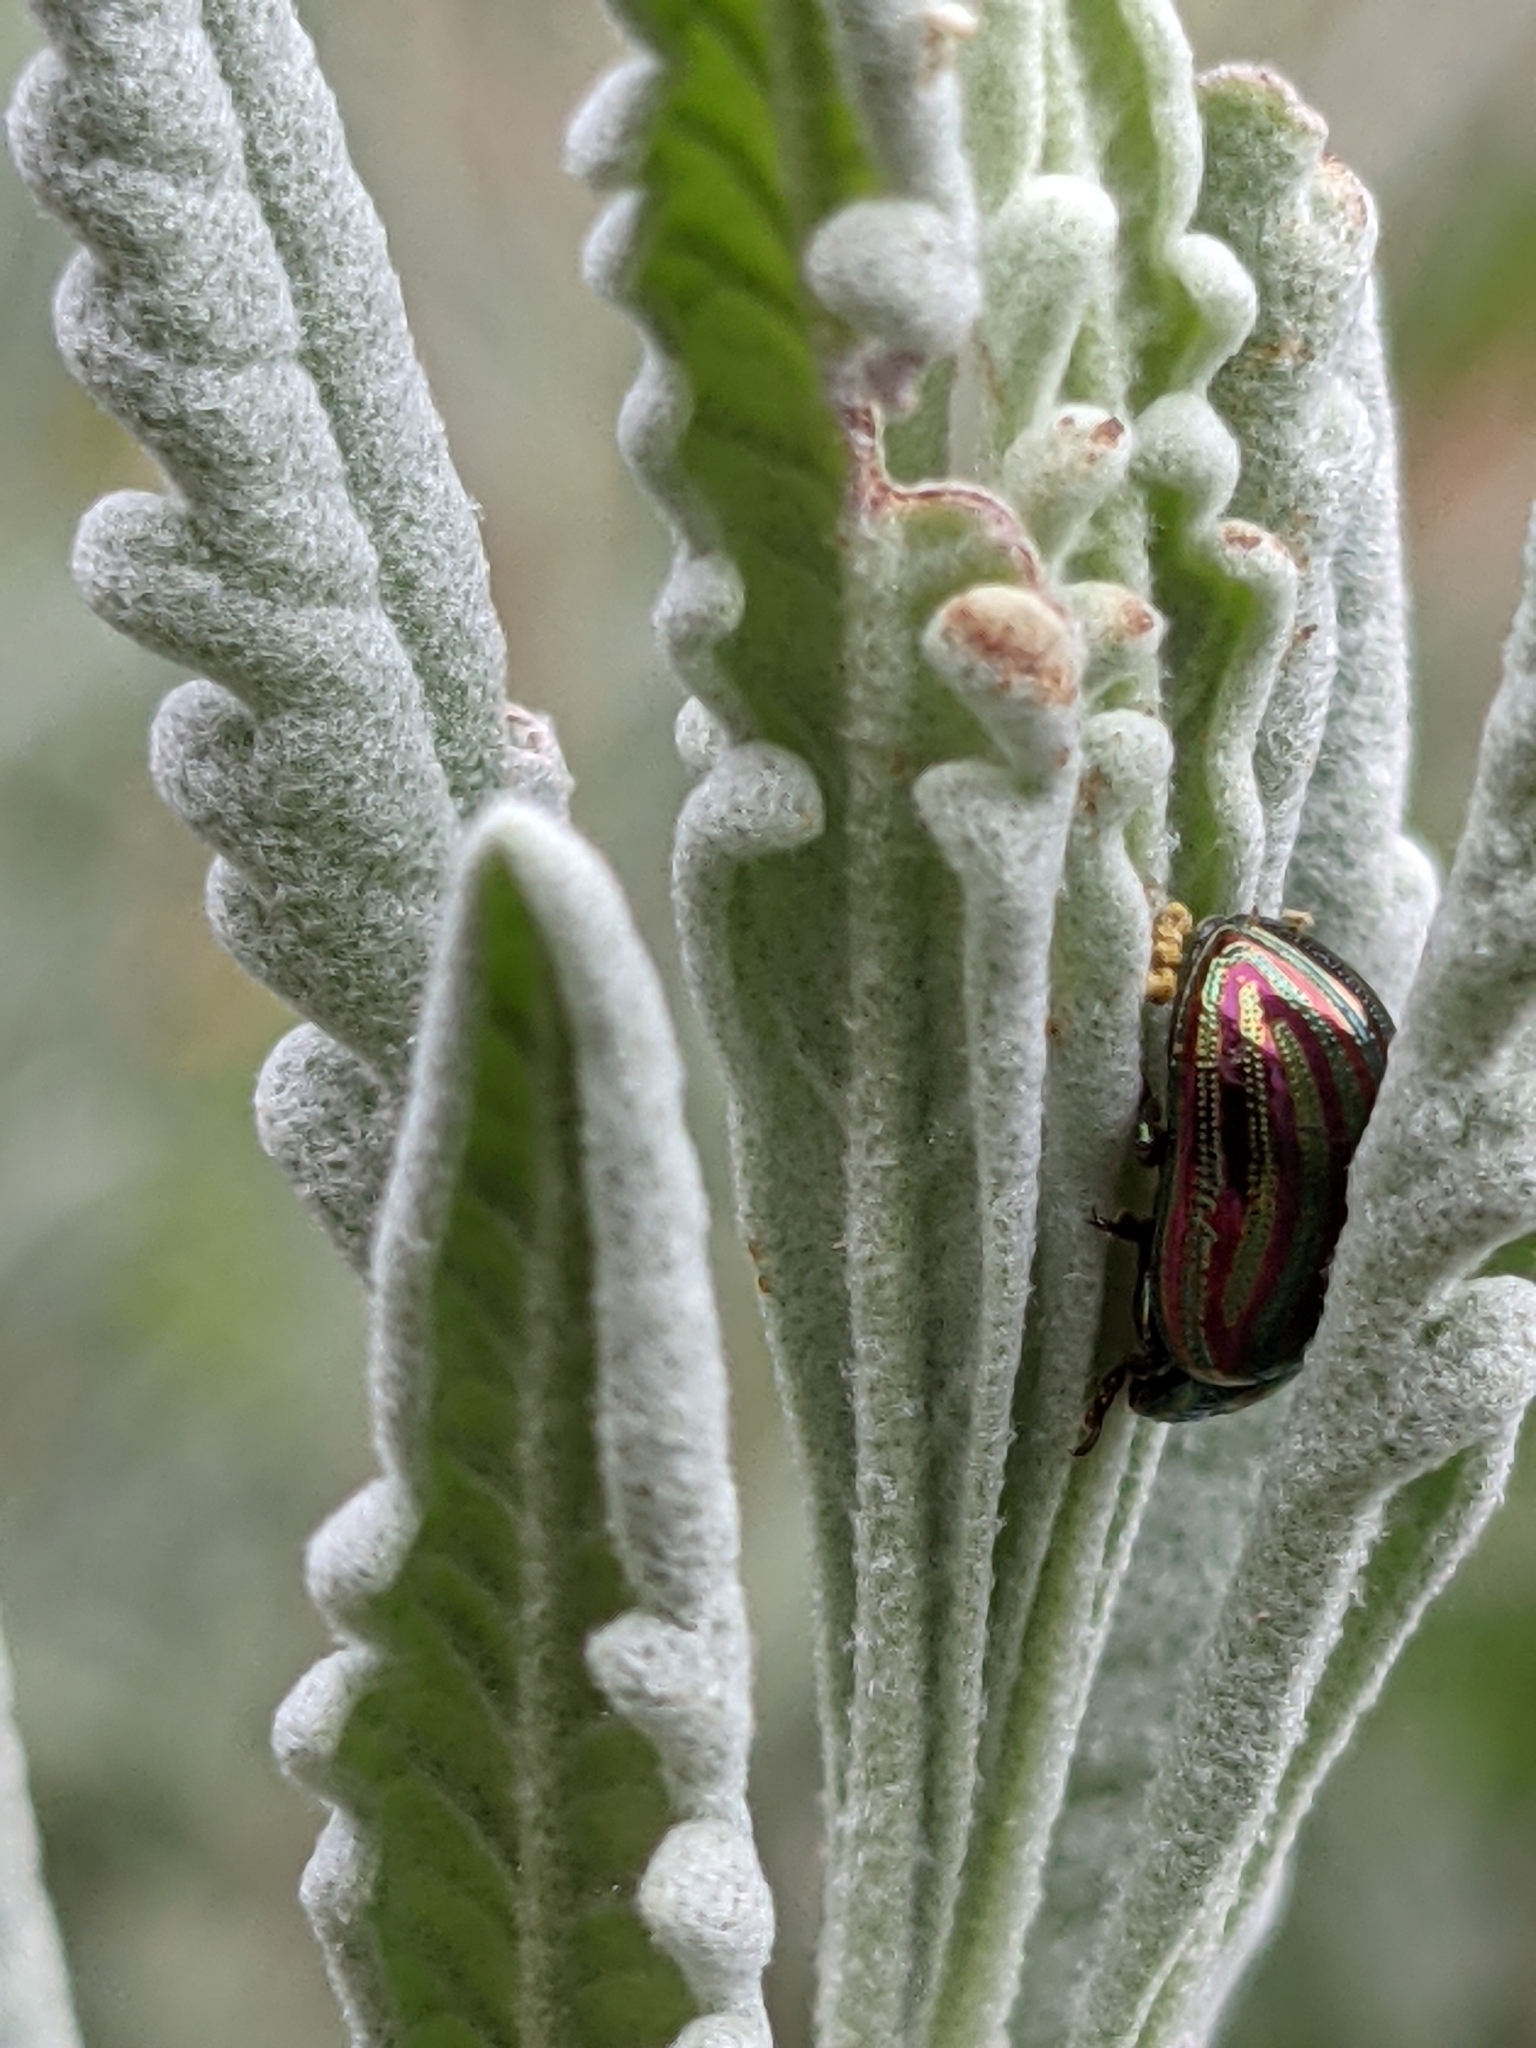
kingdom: Animalia
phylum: Arthropoda
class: Insecta
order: Coleoptera
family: Chrysomelidae
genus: Chrysolina
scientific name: Chrysolina americana
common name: Rosemary beetle
